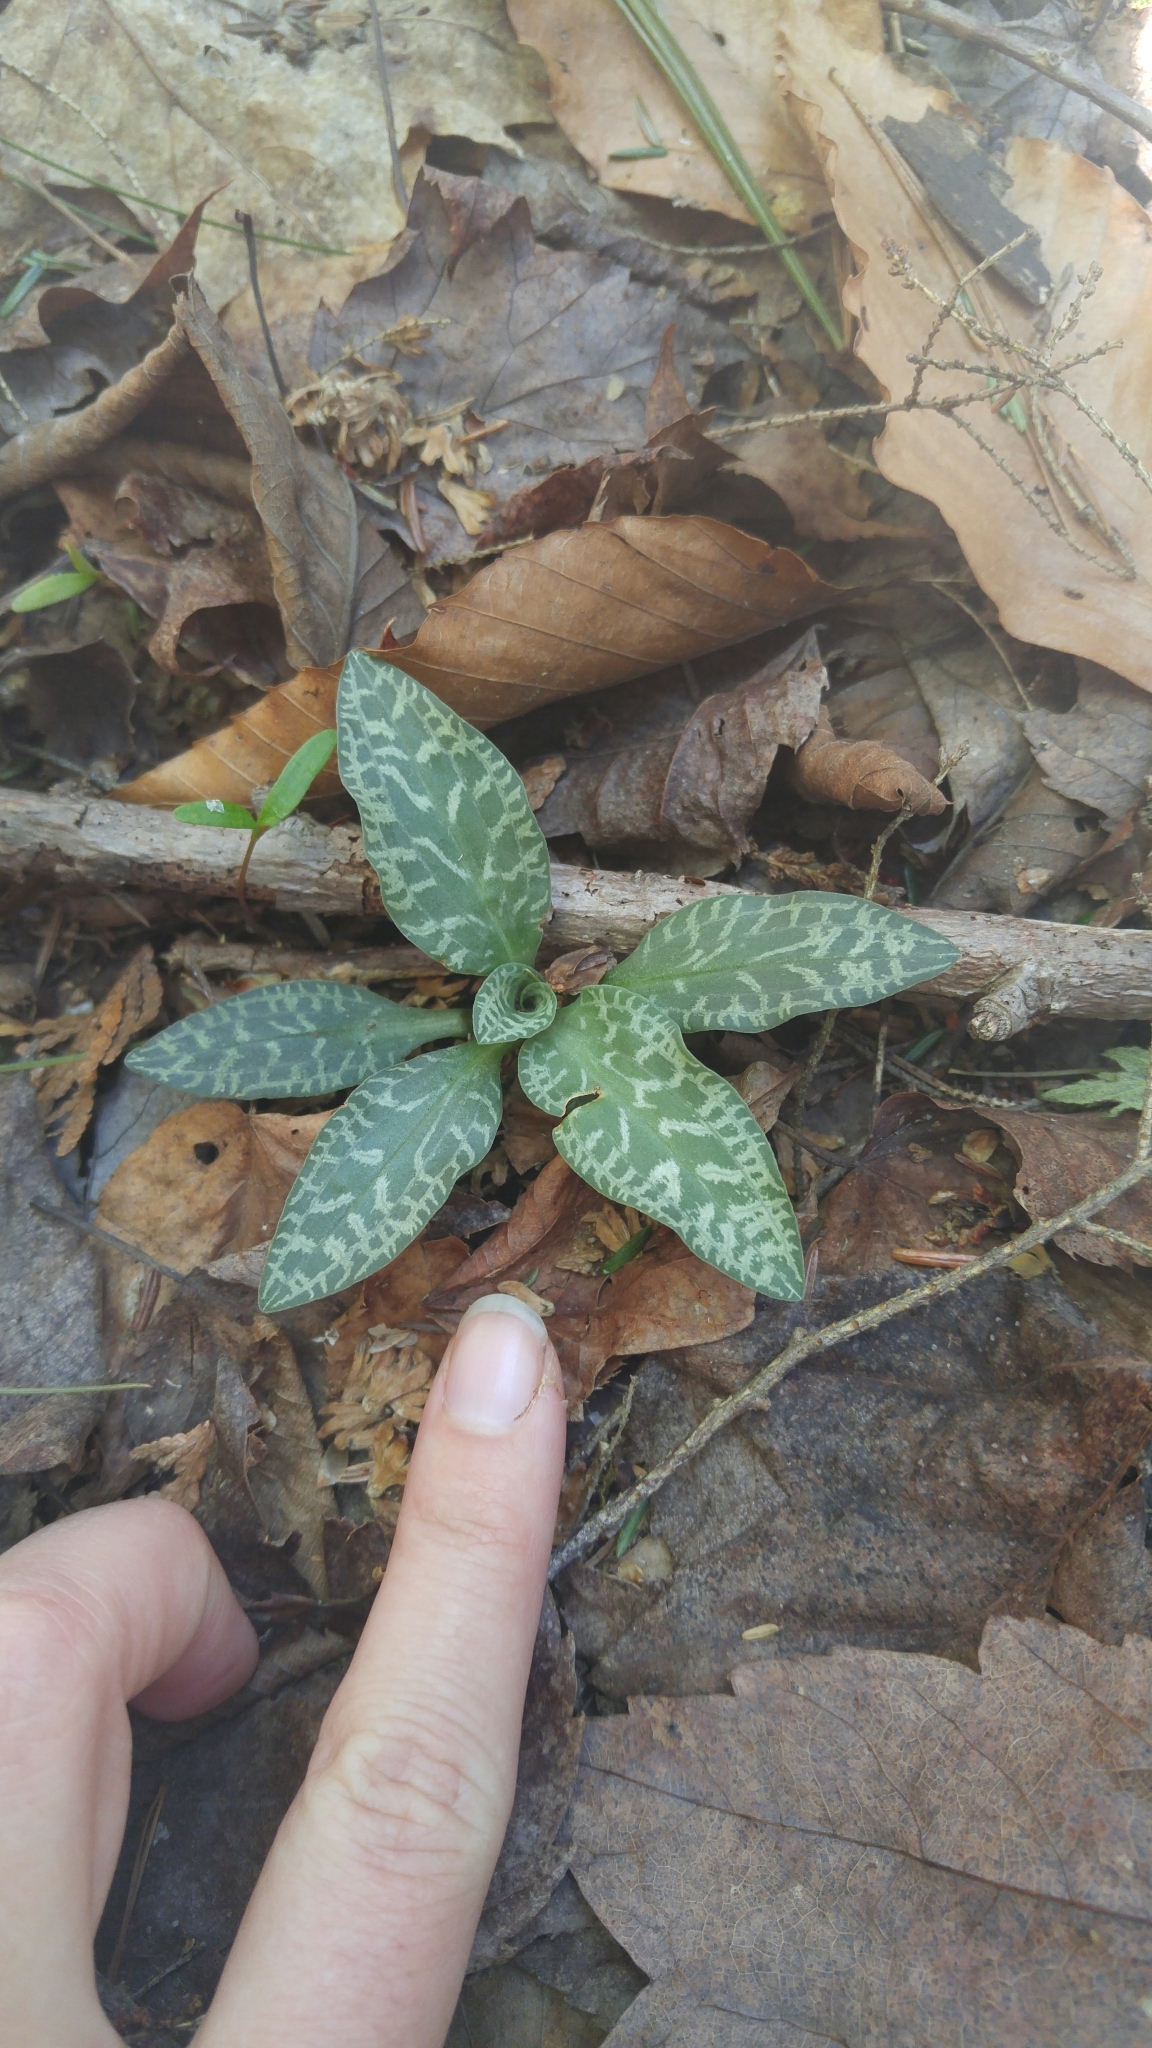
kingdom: Plantae
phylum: Tracheophyta
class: Liliopsida
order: Asparagales
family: Orchidaceae
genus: Goodyera
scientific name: Goodyera tesselata
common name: Checkered rattlesnake-plantain
